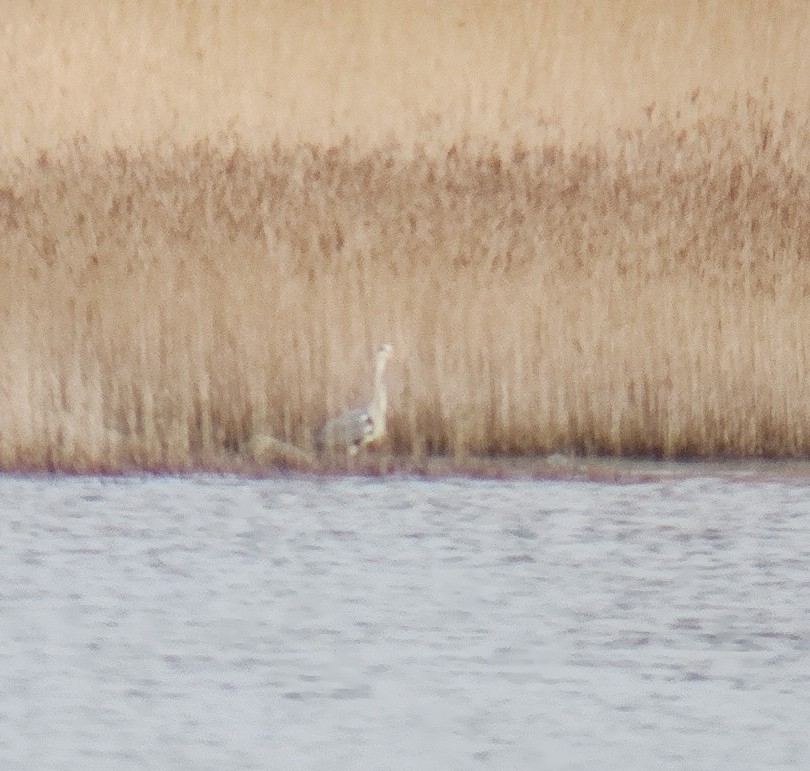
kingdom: Animalia
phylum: Chordata
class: Aves
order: Pelecaniformes
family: Ardeidae
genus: Ardea
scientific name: Ardea cinerea
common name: Grey heron
